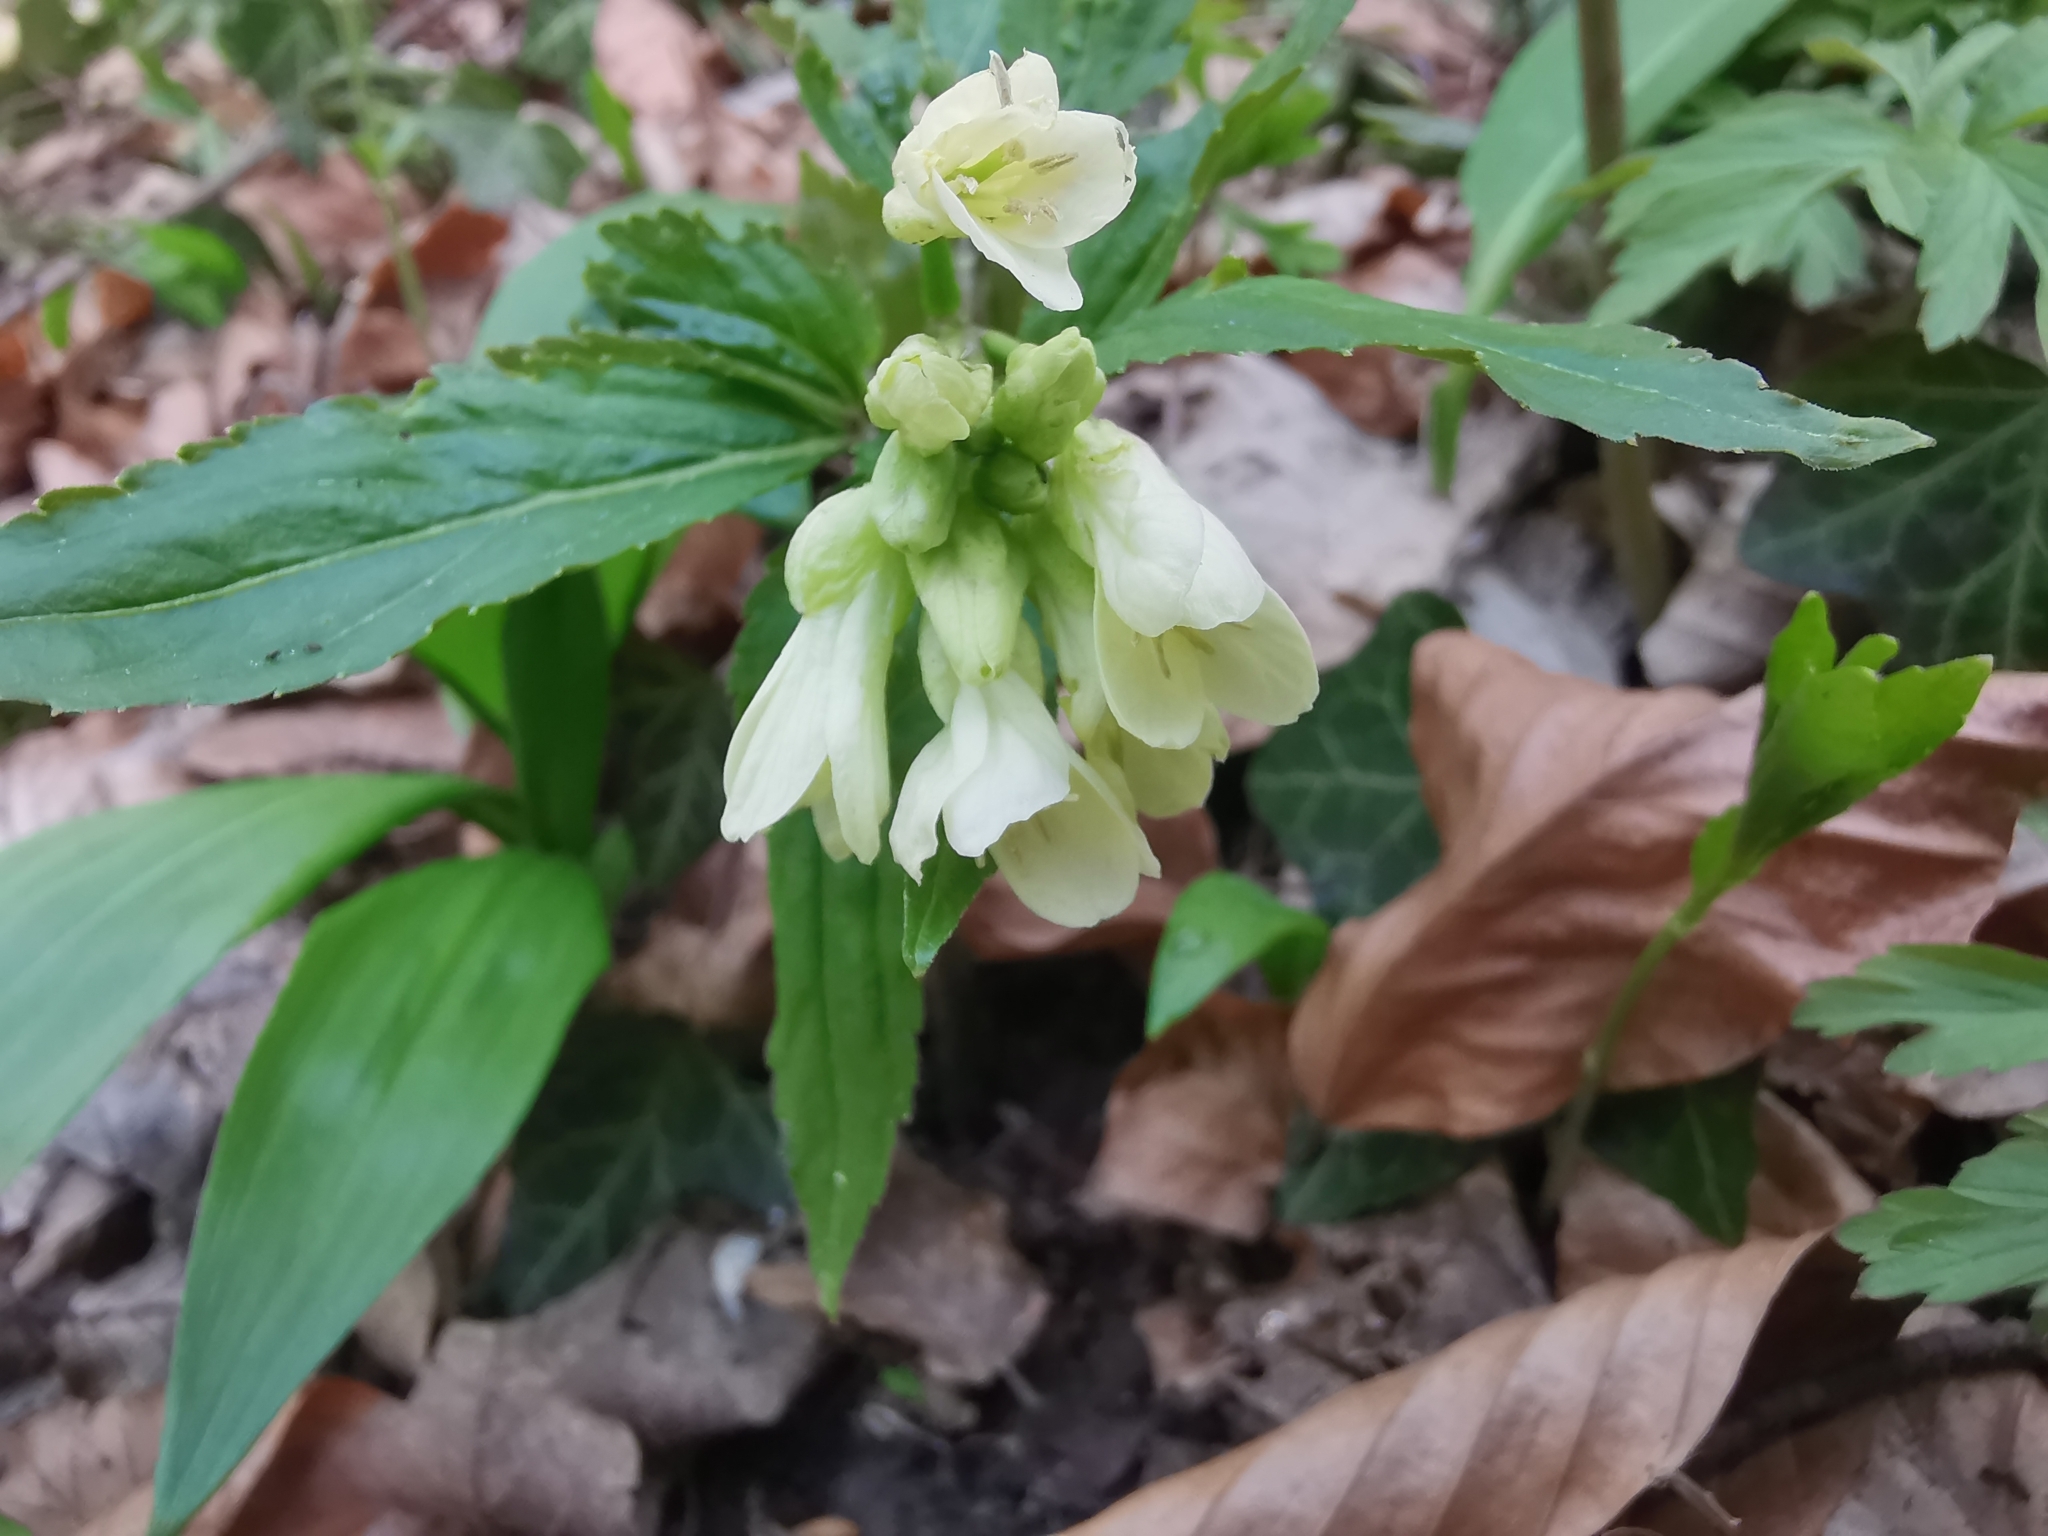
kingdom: Plantae
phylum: Tracheophyta
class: Magnoliopsida
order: Brassicales
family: Brassicaceae
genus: Cardamine
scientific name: Cardamine enneaphyllos
